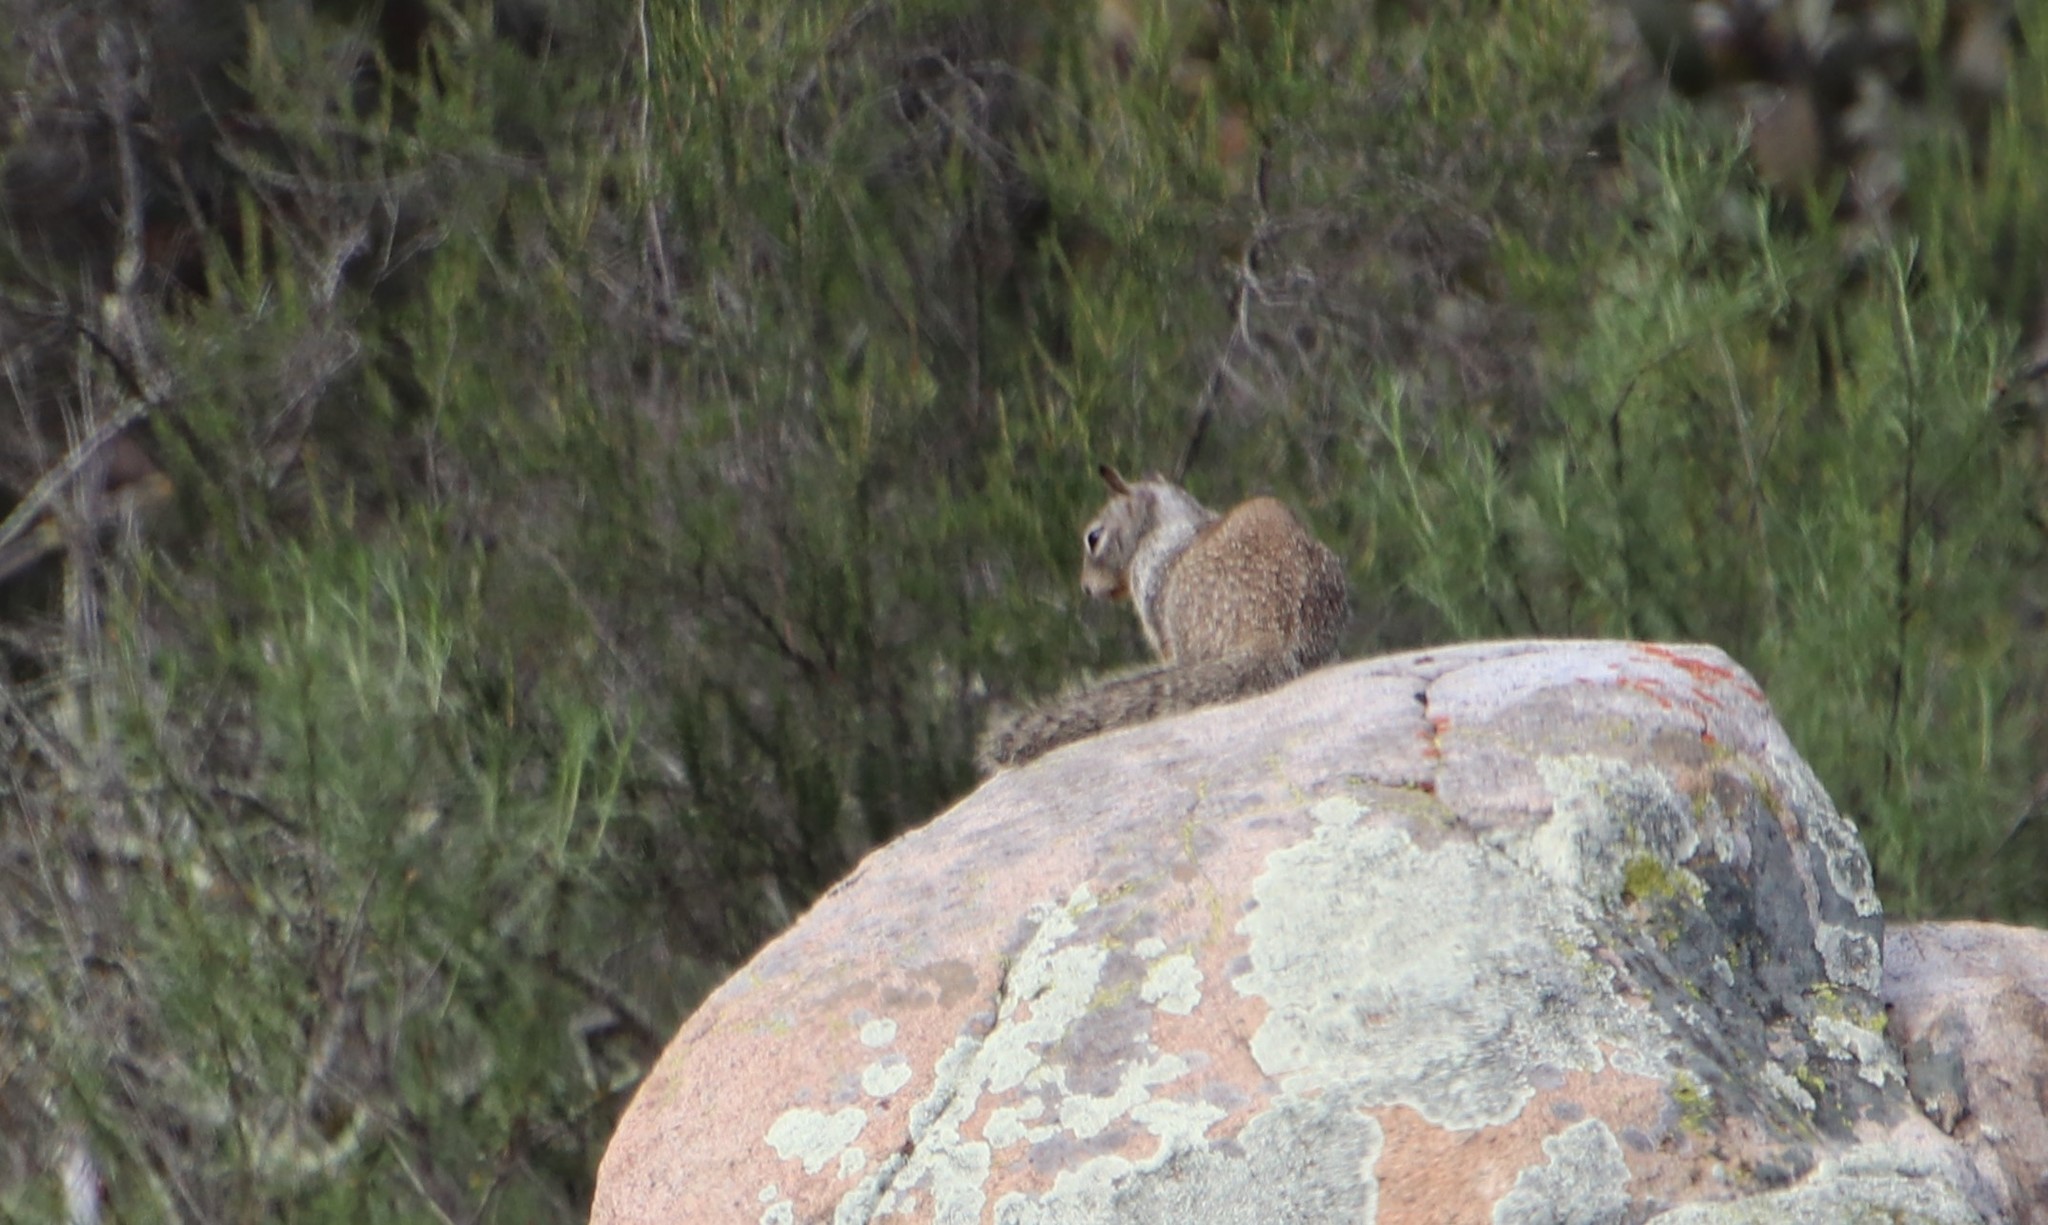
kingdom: Animalia
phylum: Chordata
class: Mammalia
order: Rodentia
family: Sciuridae
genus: Otospermophilus
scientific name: Otospermophilus beecheyi
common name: California ground squirrel
